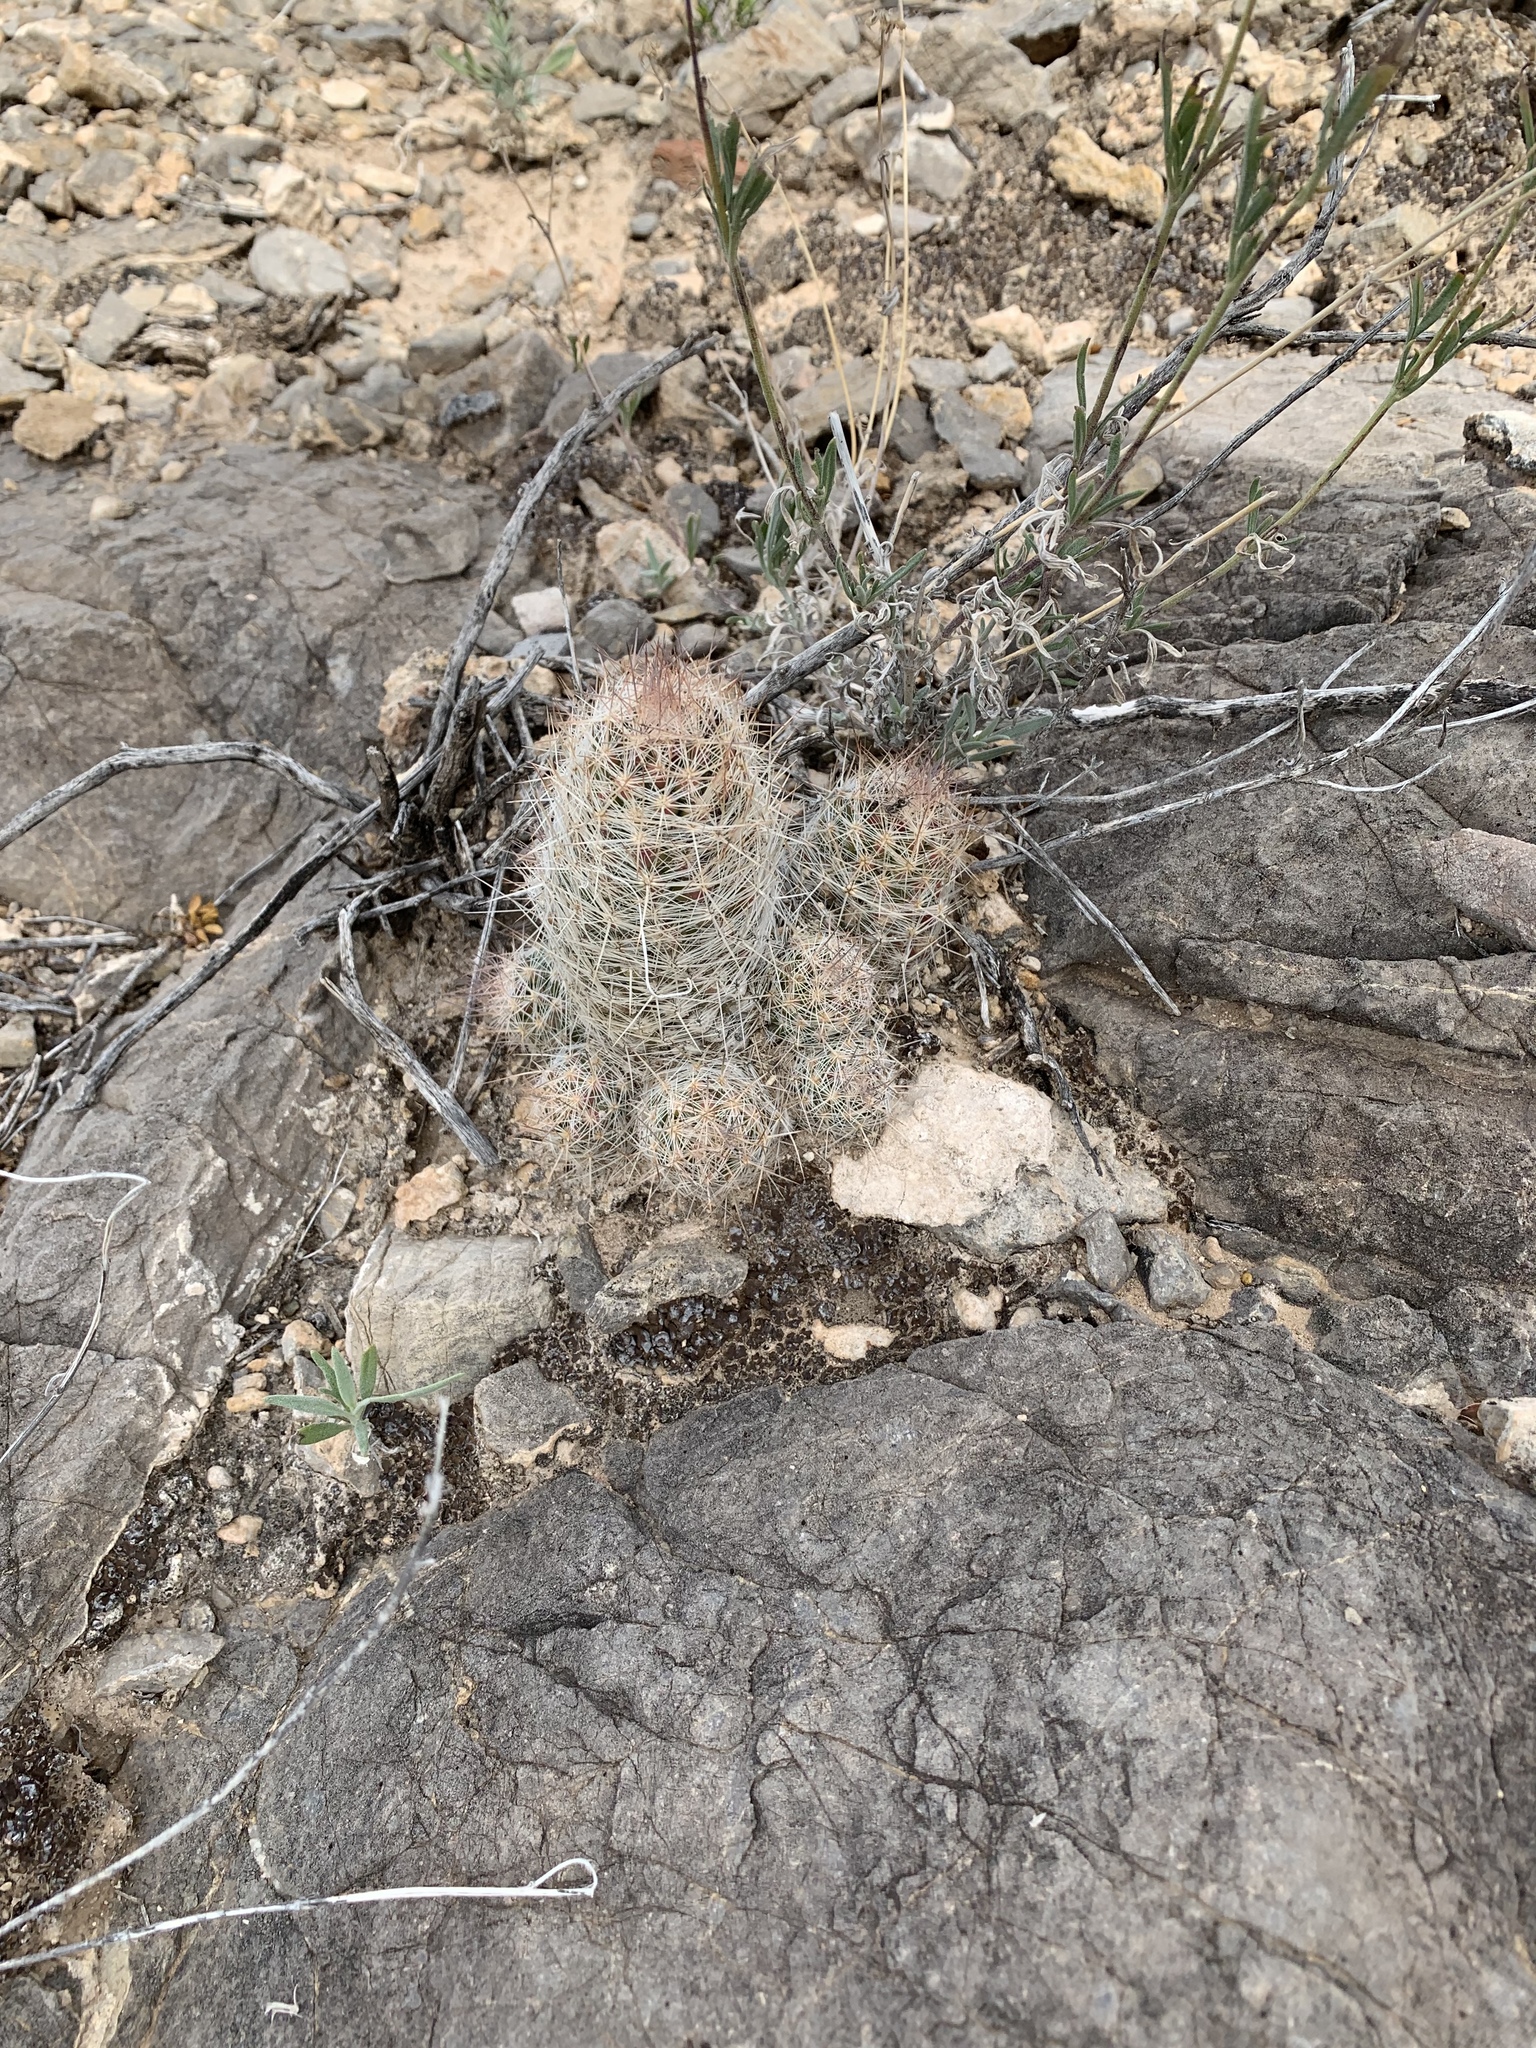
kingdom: Plantae
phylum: Tracheophyta
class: Magnoliopsida
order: Caryophyllales
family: Cactaceae
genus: Pelecyphora
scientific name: Pelecyphora tuberculosa
